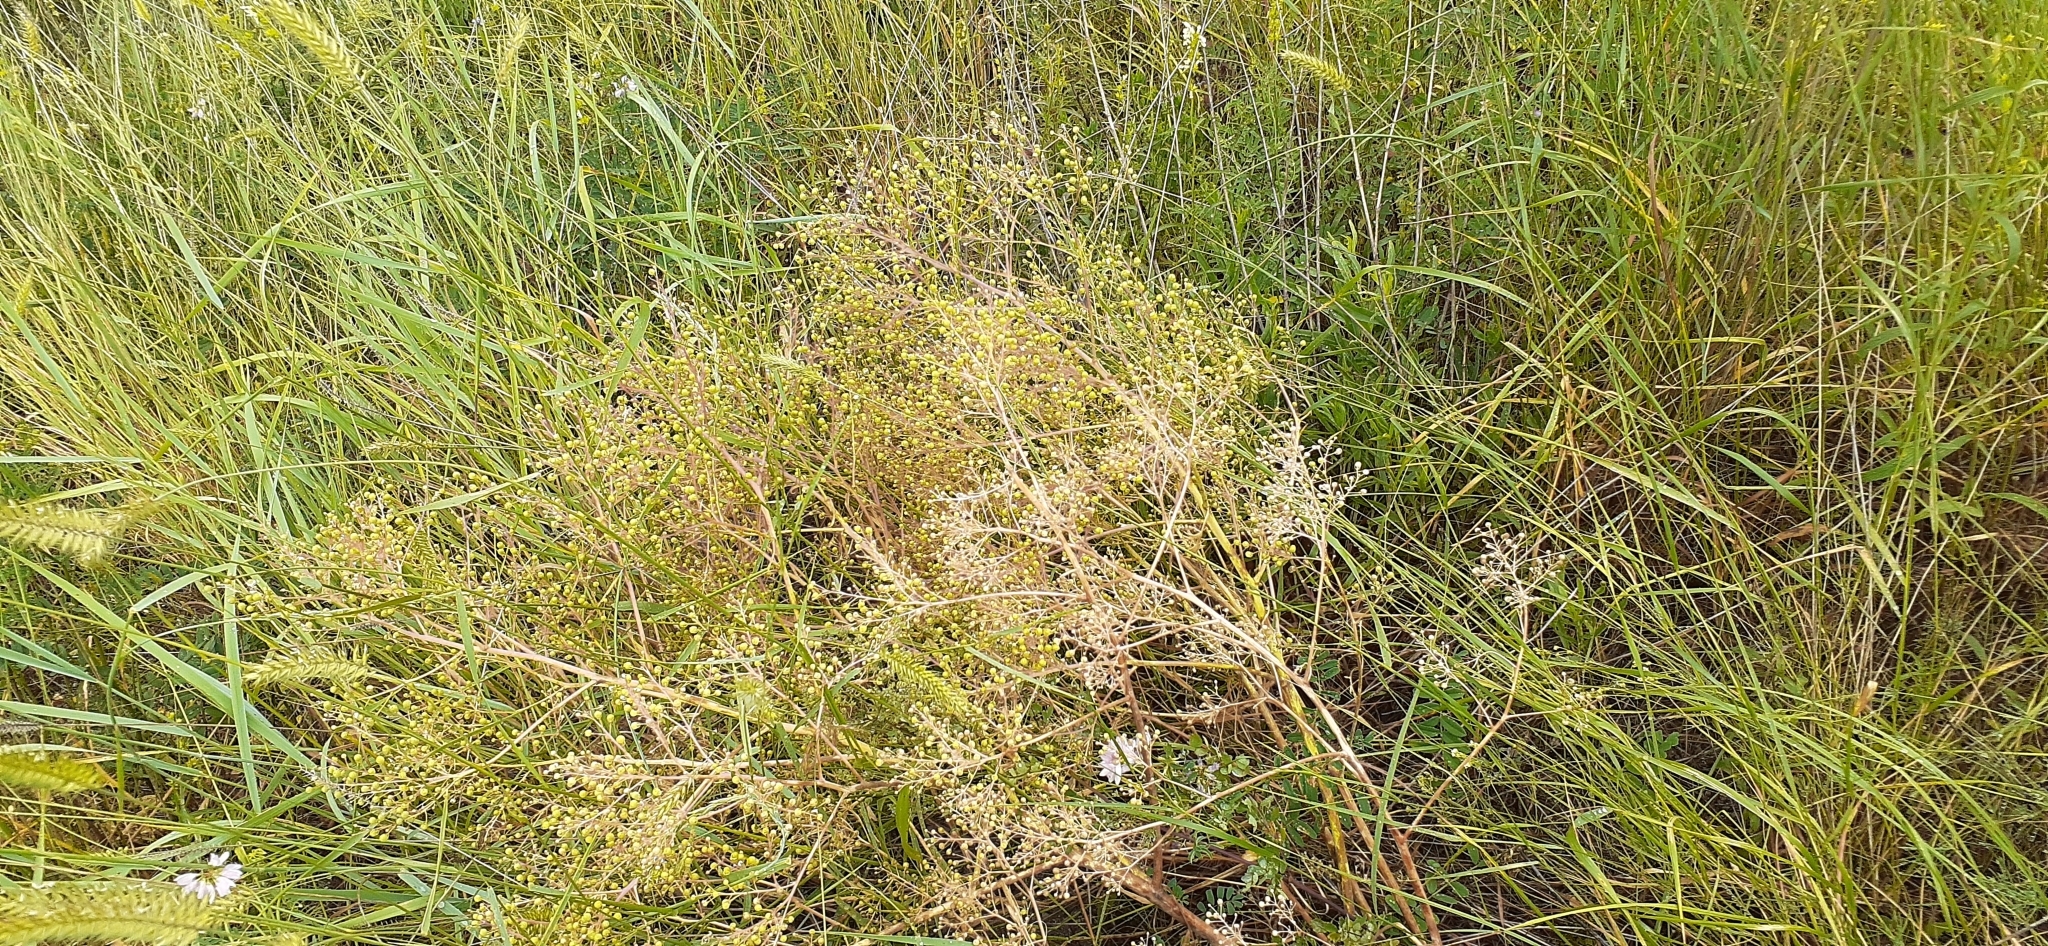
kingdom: Plantae
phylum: Tracheophyta
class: Magnoliopsida
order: Brassicales
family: Brassicaceae
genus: Crambe
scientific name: Crambe tataria
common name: Tartarian breadplant
